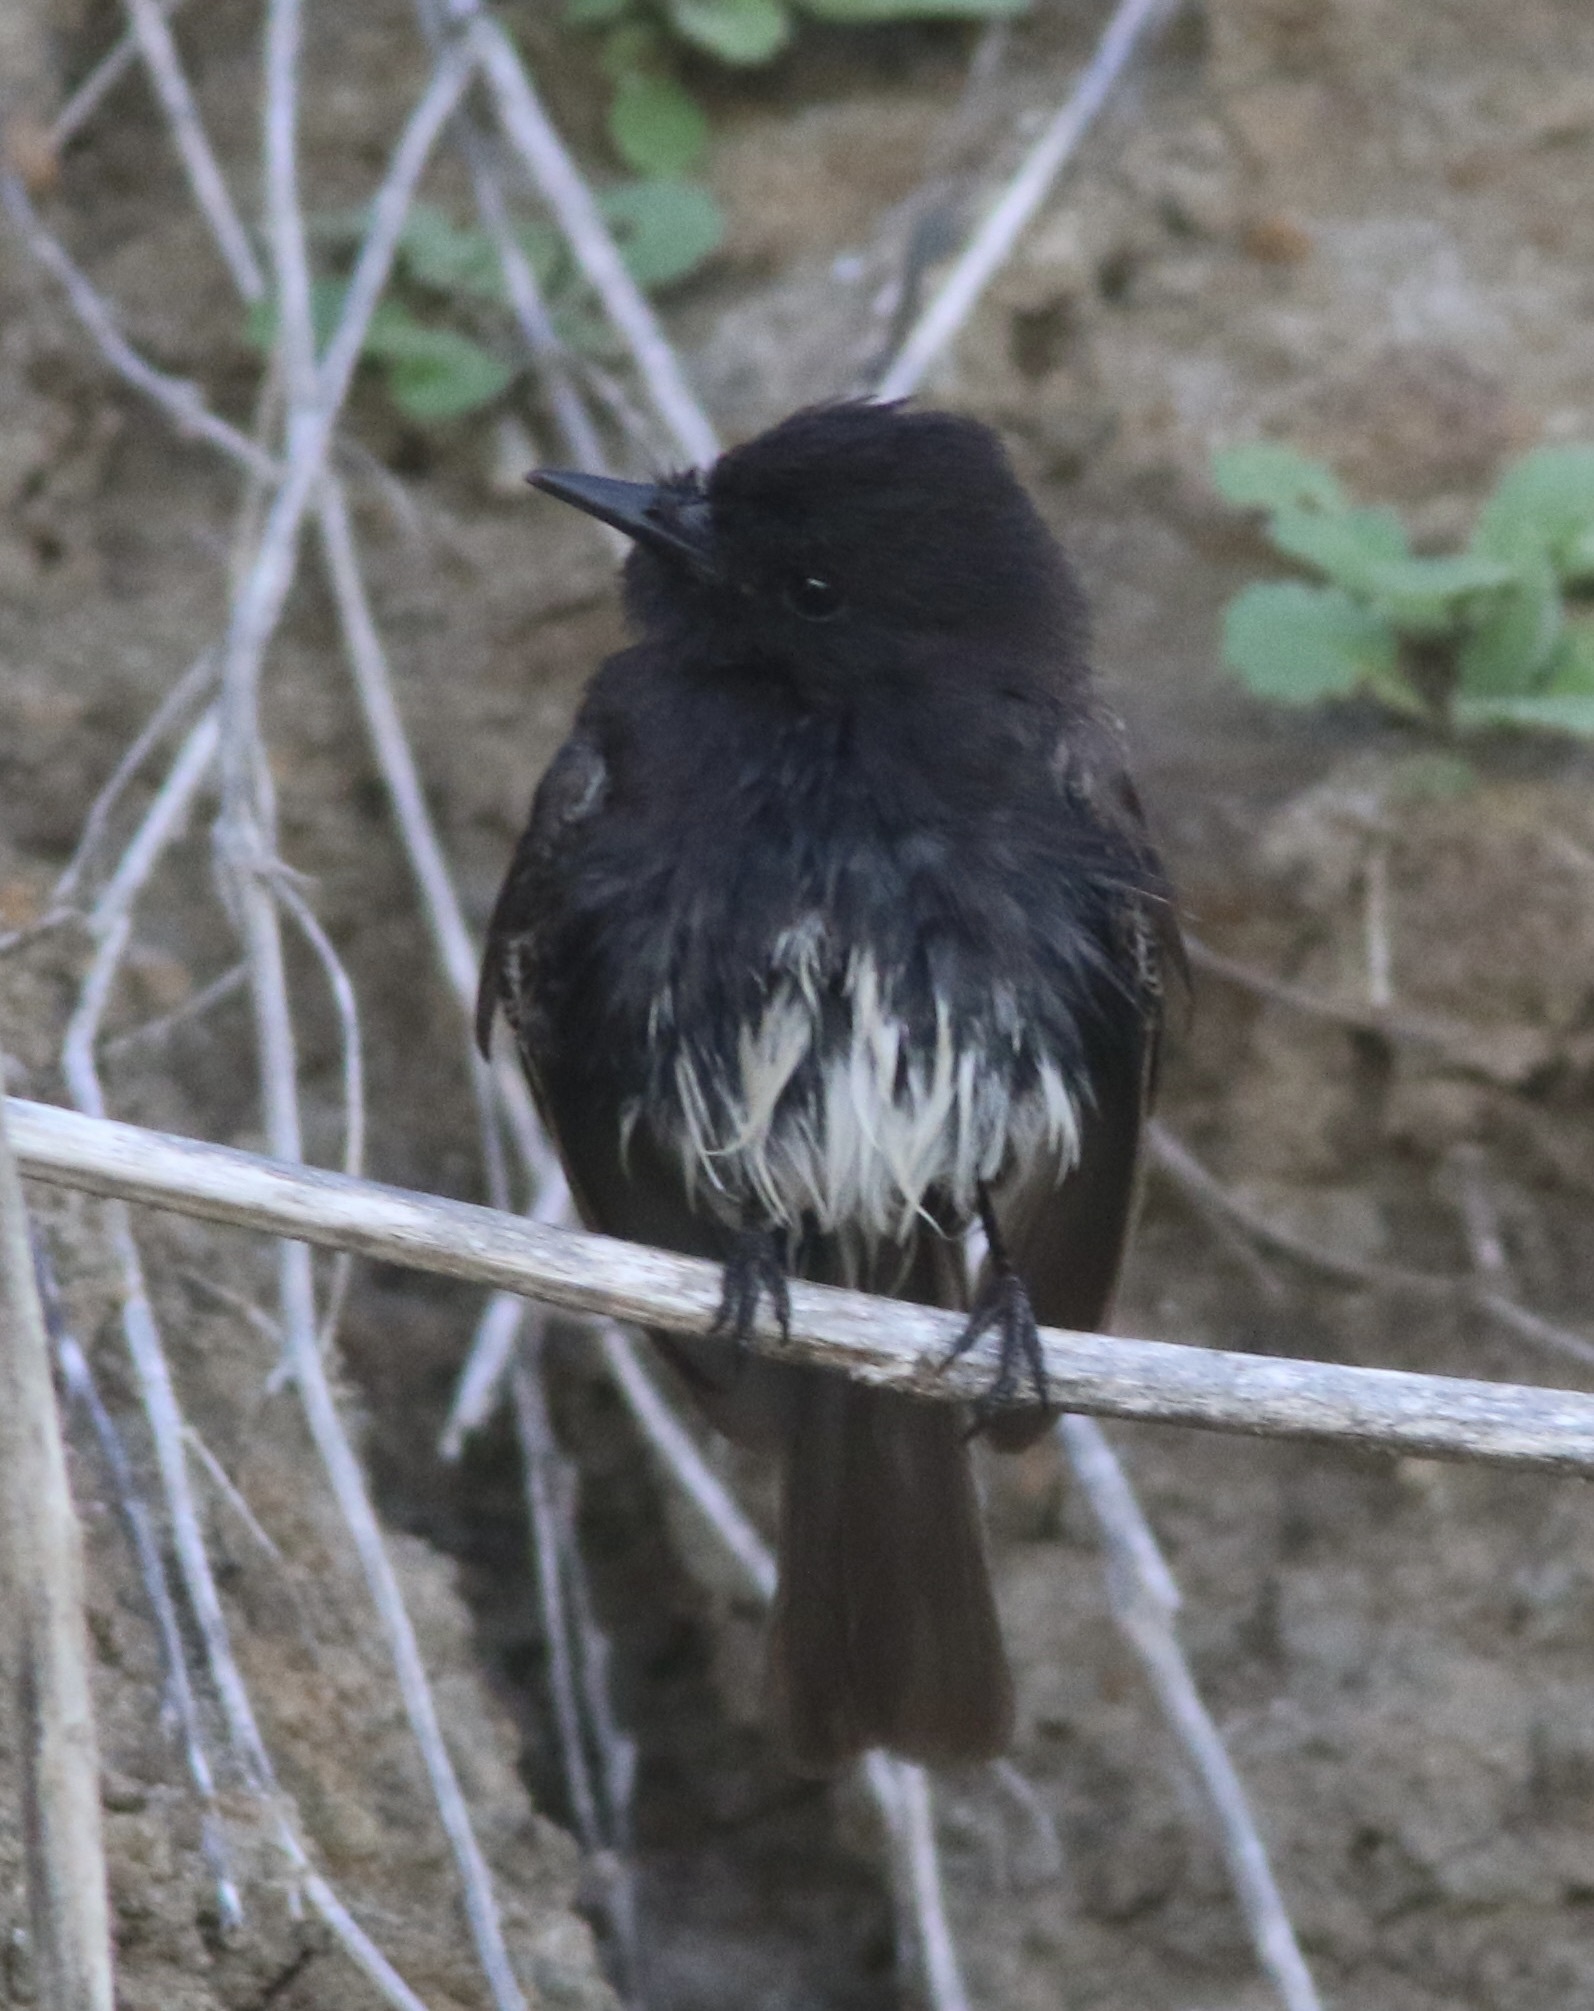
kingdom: Animalia
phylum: Chordata
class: Aves
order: Passeriformes
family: Tyrannidae
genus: Sayornis
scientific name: Sayornis nigricans
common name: Black phoebe
